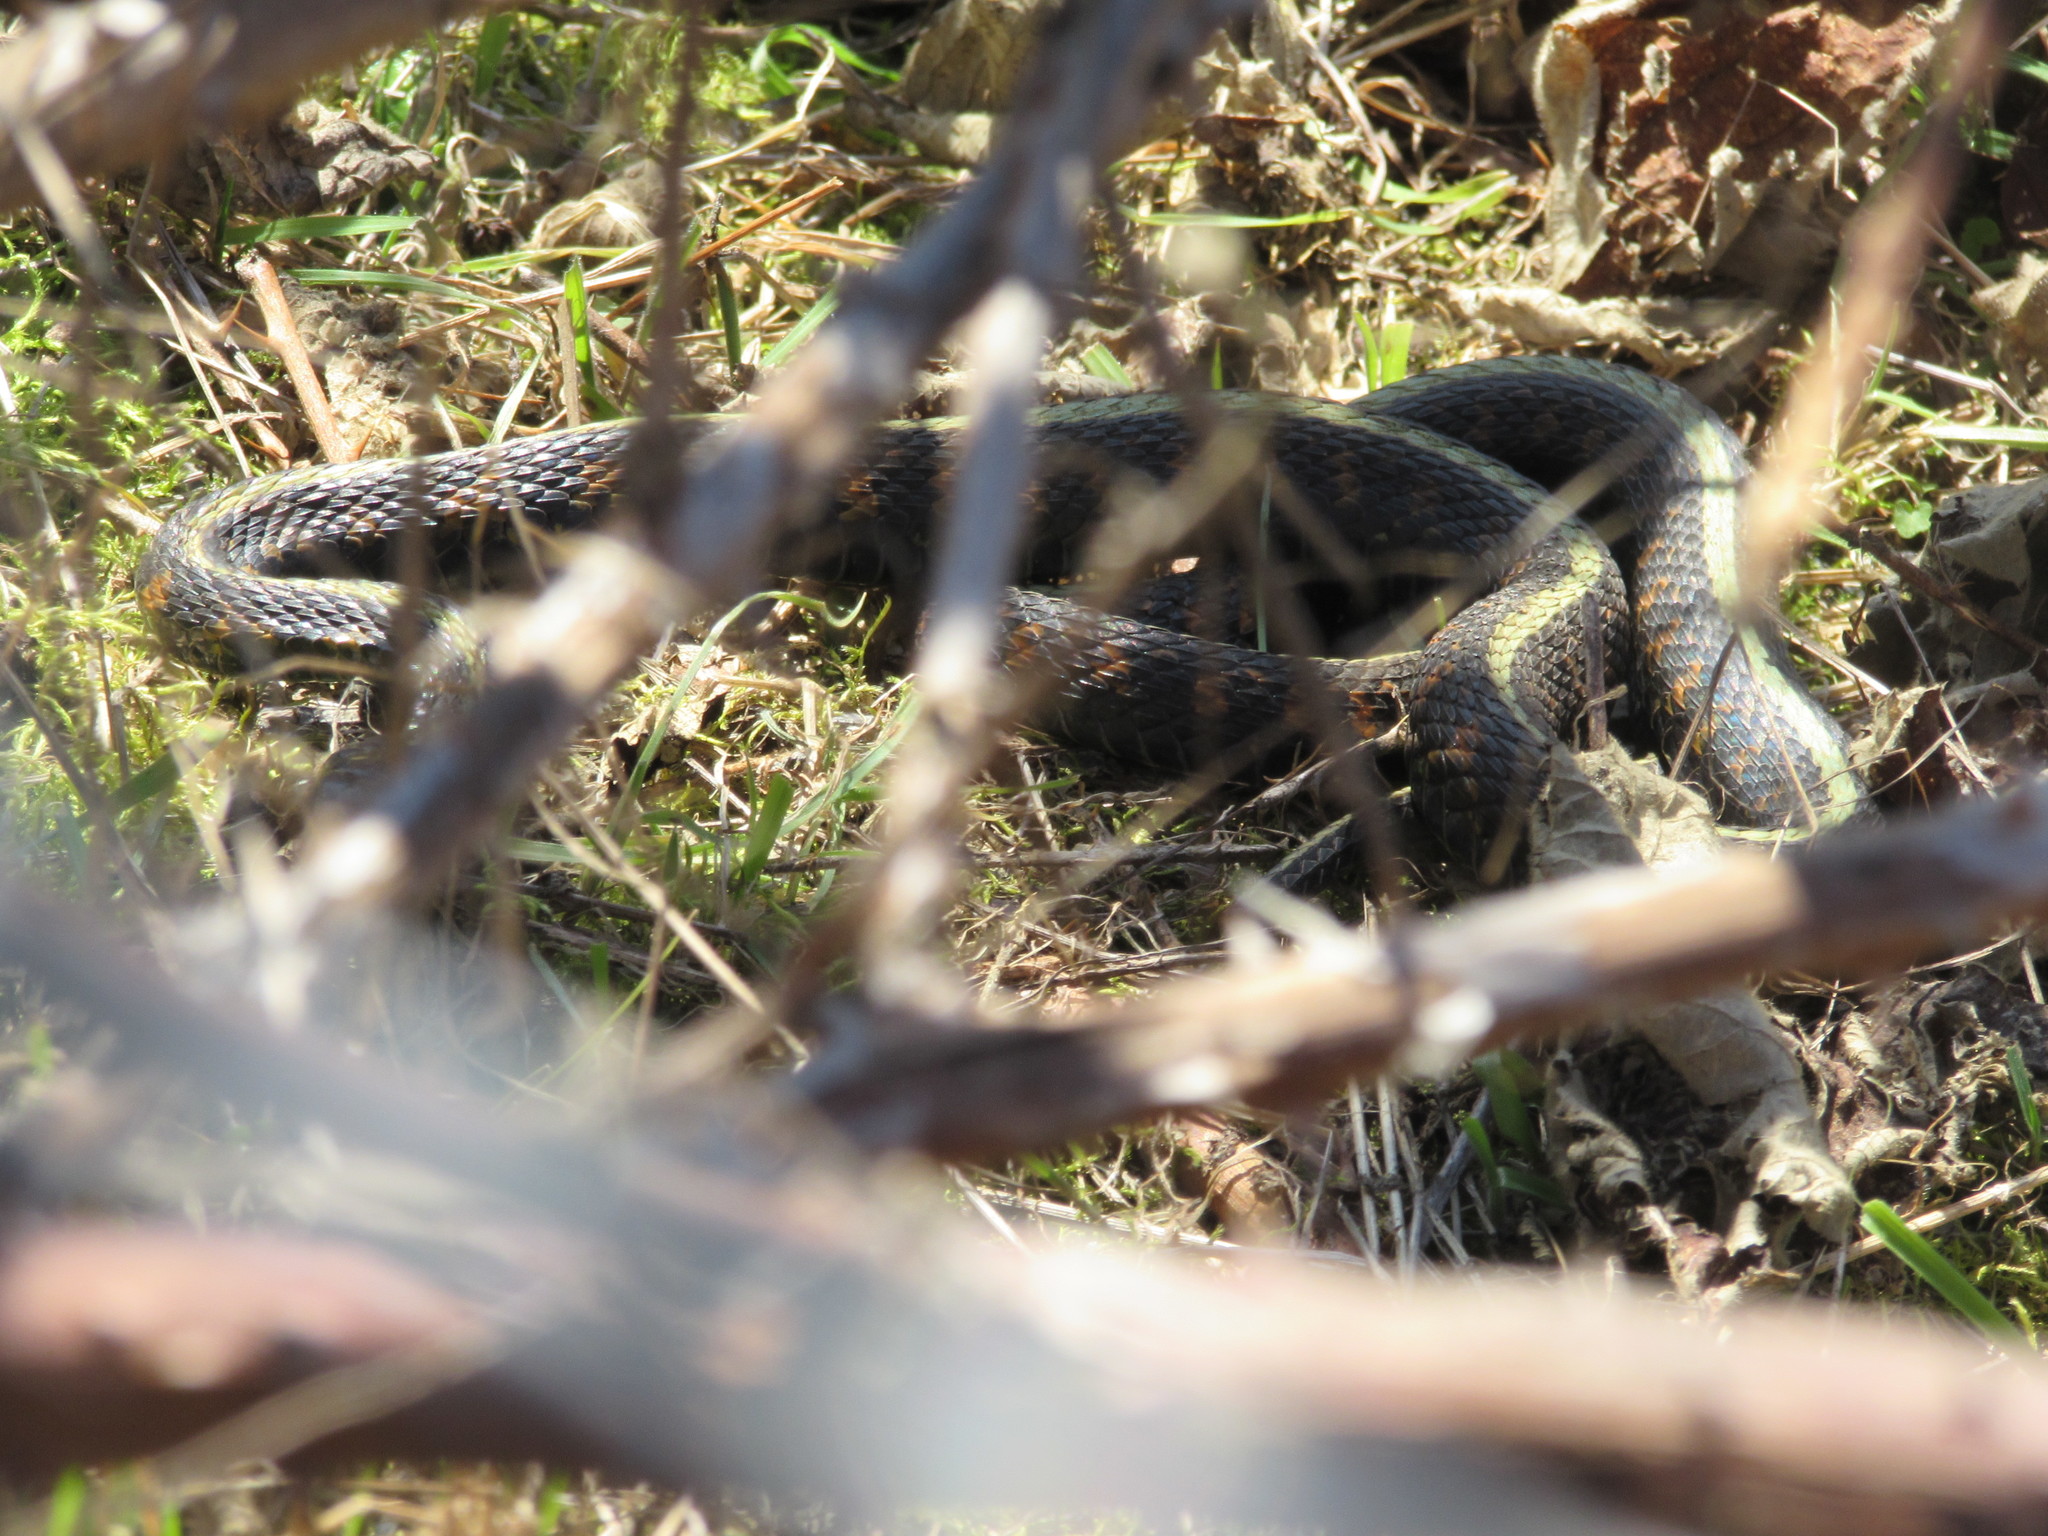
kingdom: Animalia
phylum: Chordata
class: Squamata
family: Colubridae
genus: Thamnophis
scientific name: Thamnophis sirtalis
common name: Common garter snake
